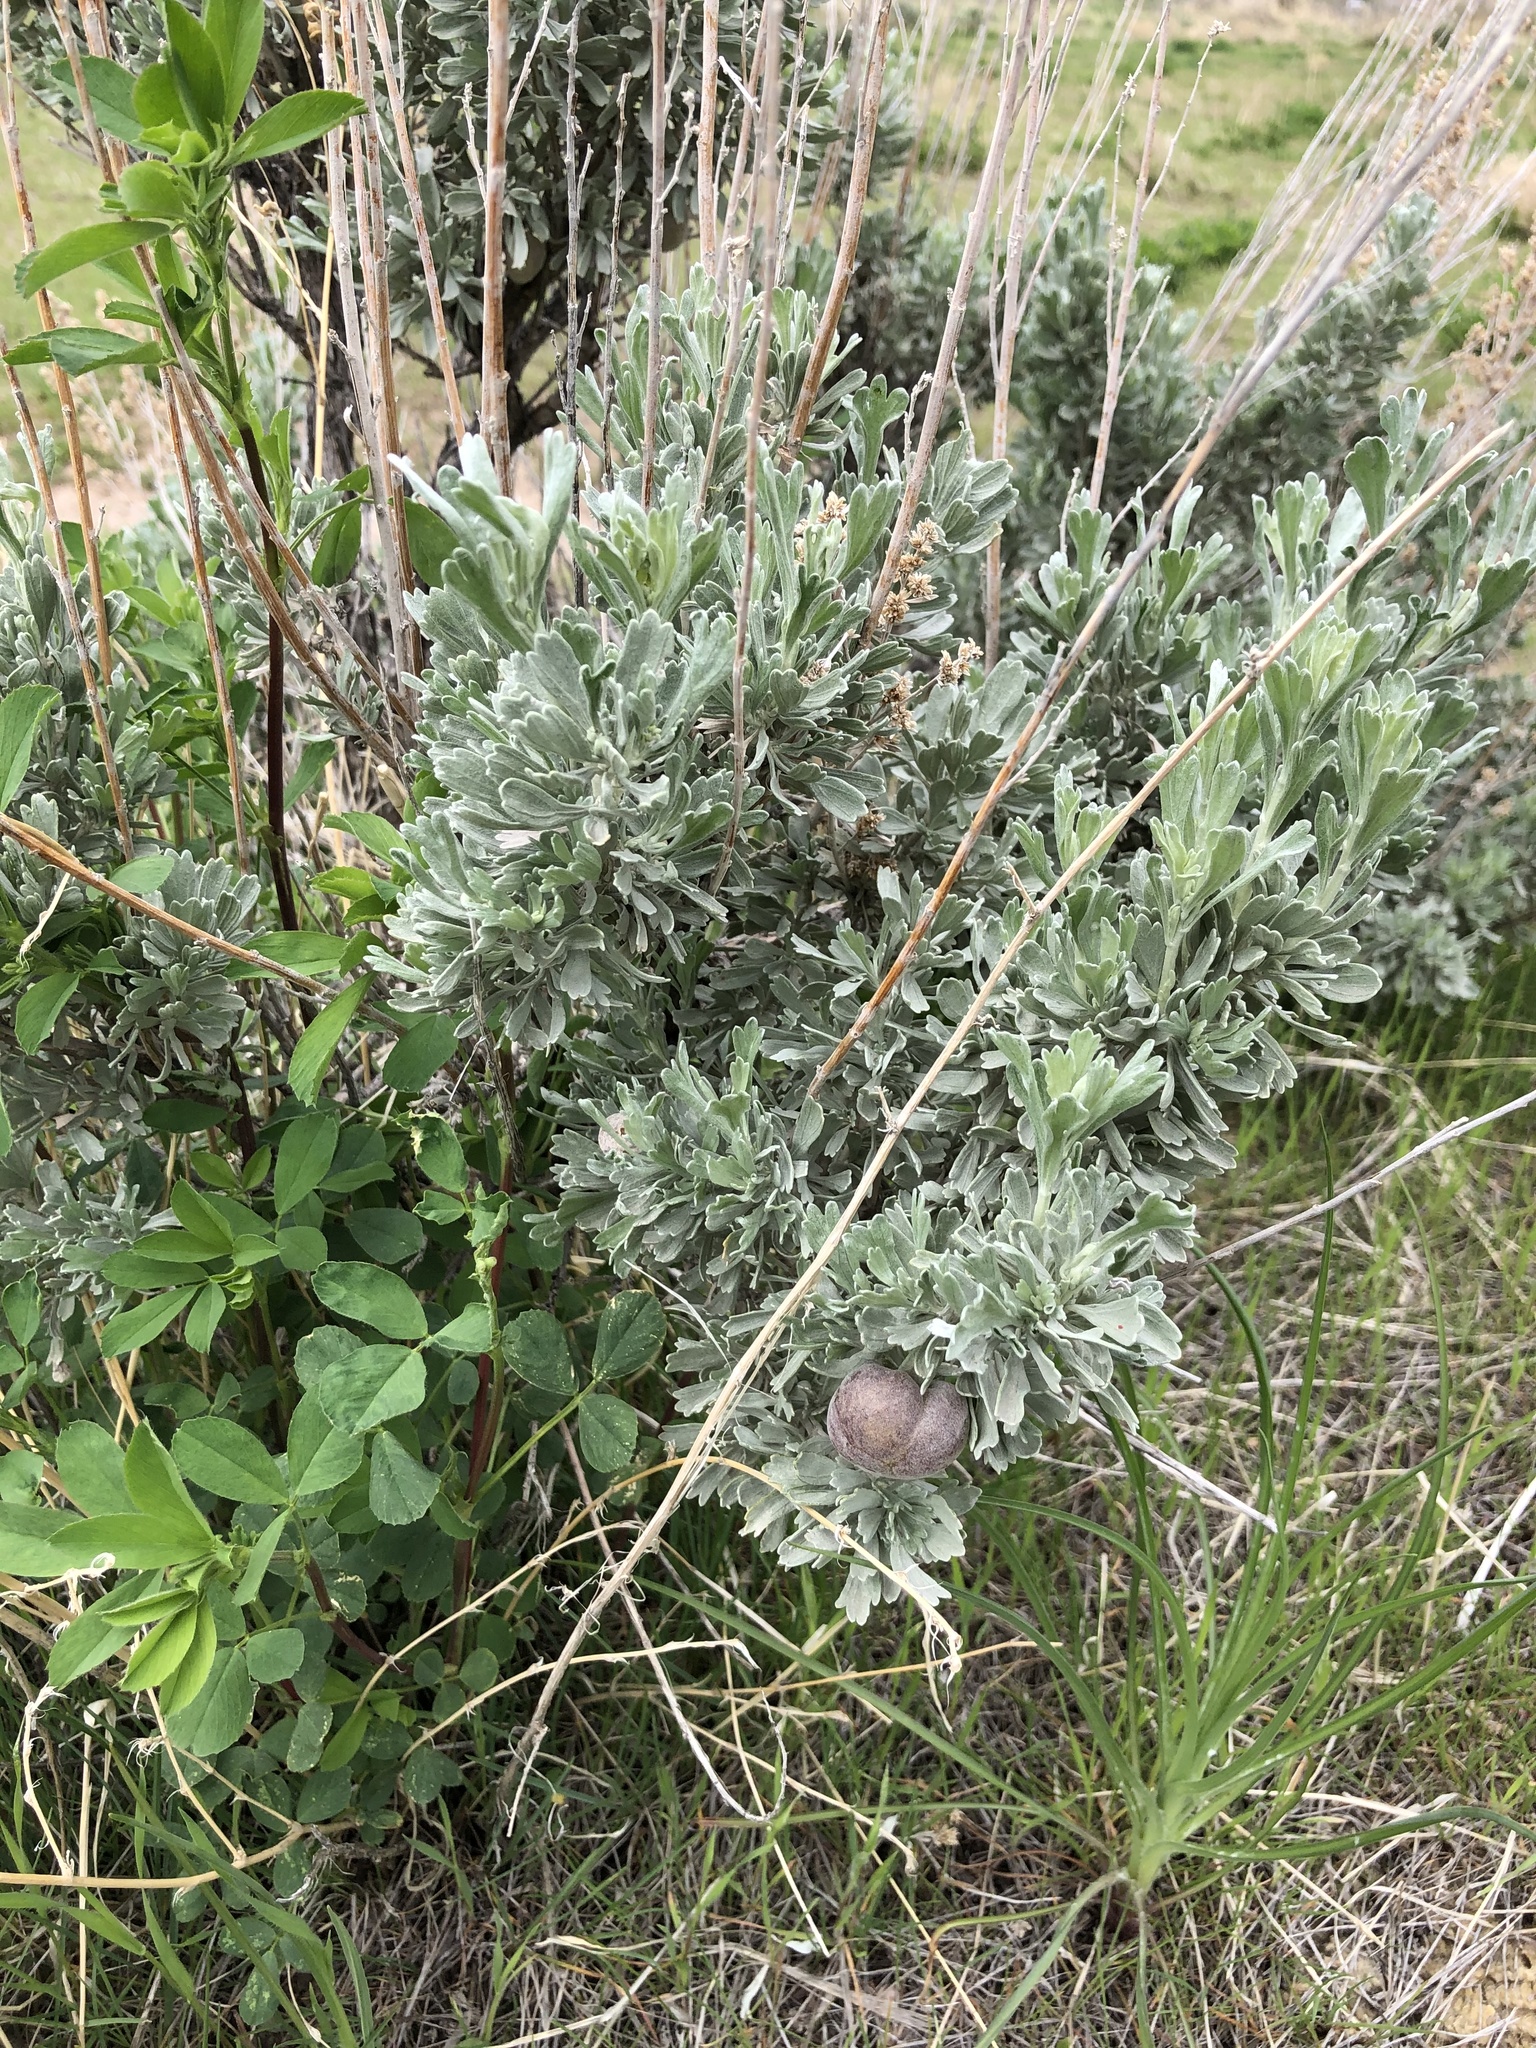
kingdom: Plantae
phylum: Tracheophyta
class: Magnoliopsida
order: Asterales
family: Asteraceae
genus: Artemisia
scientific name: Artemisia tridentata
